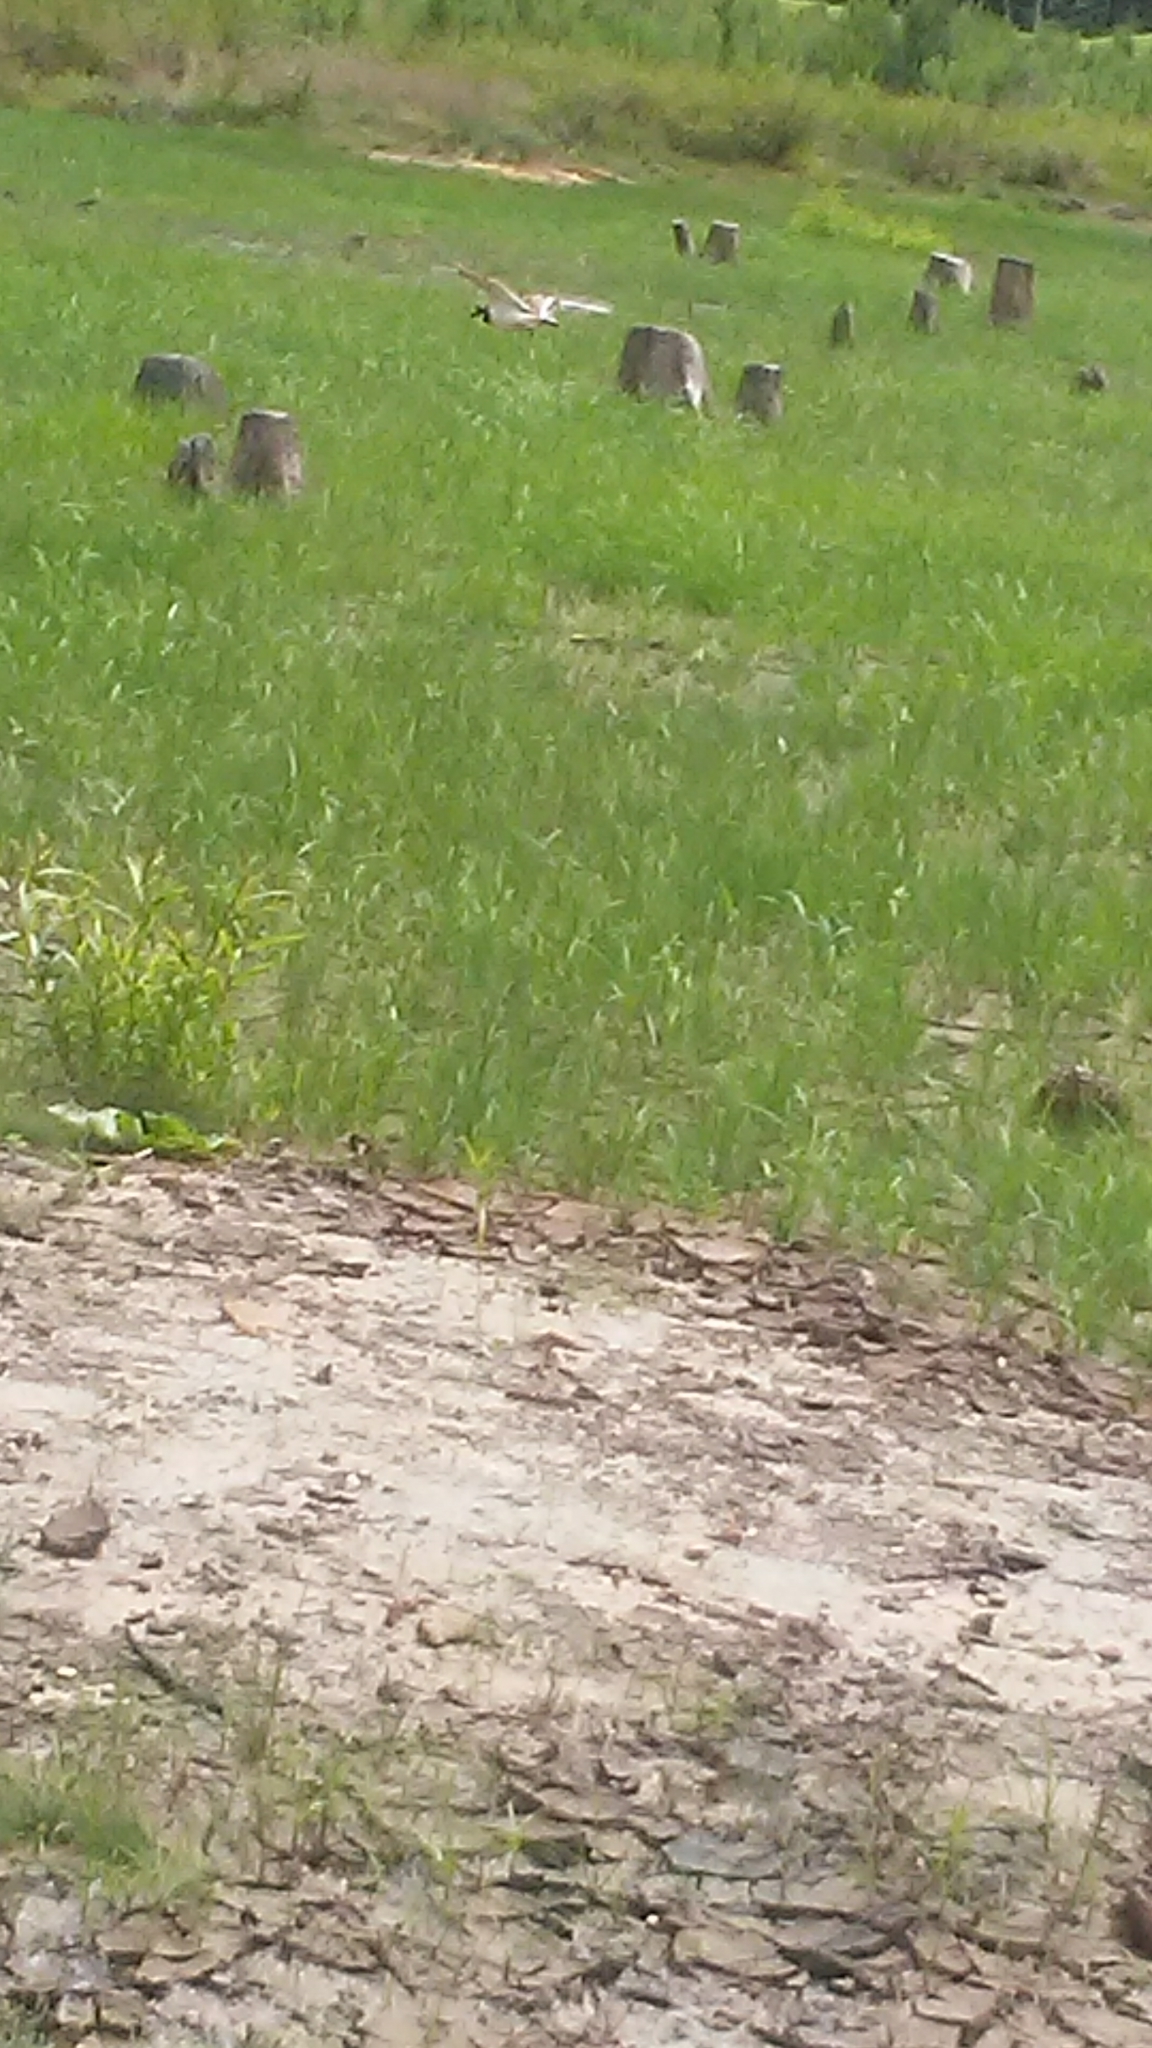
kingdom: Animalia
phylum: Chordata
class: Aves
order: Charadriiformes
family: Charadriidae
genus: Charadrius
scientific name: Charadrius vociferus
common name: Killdeer
